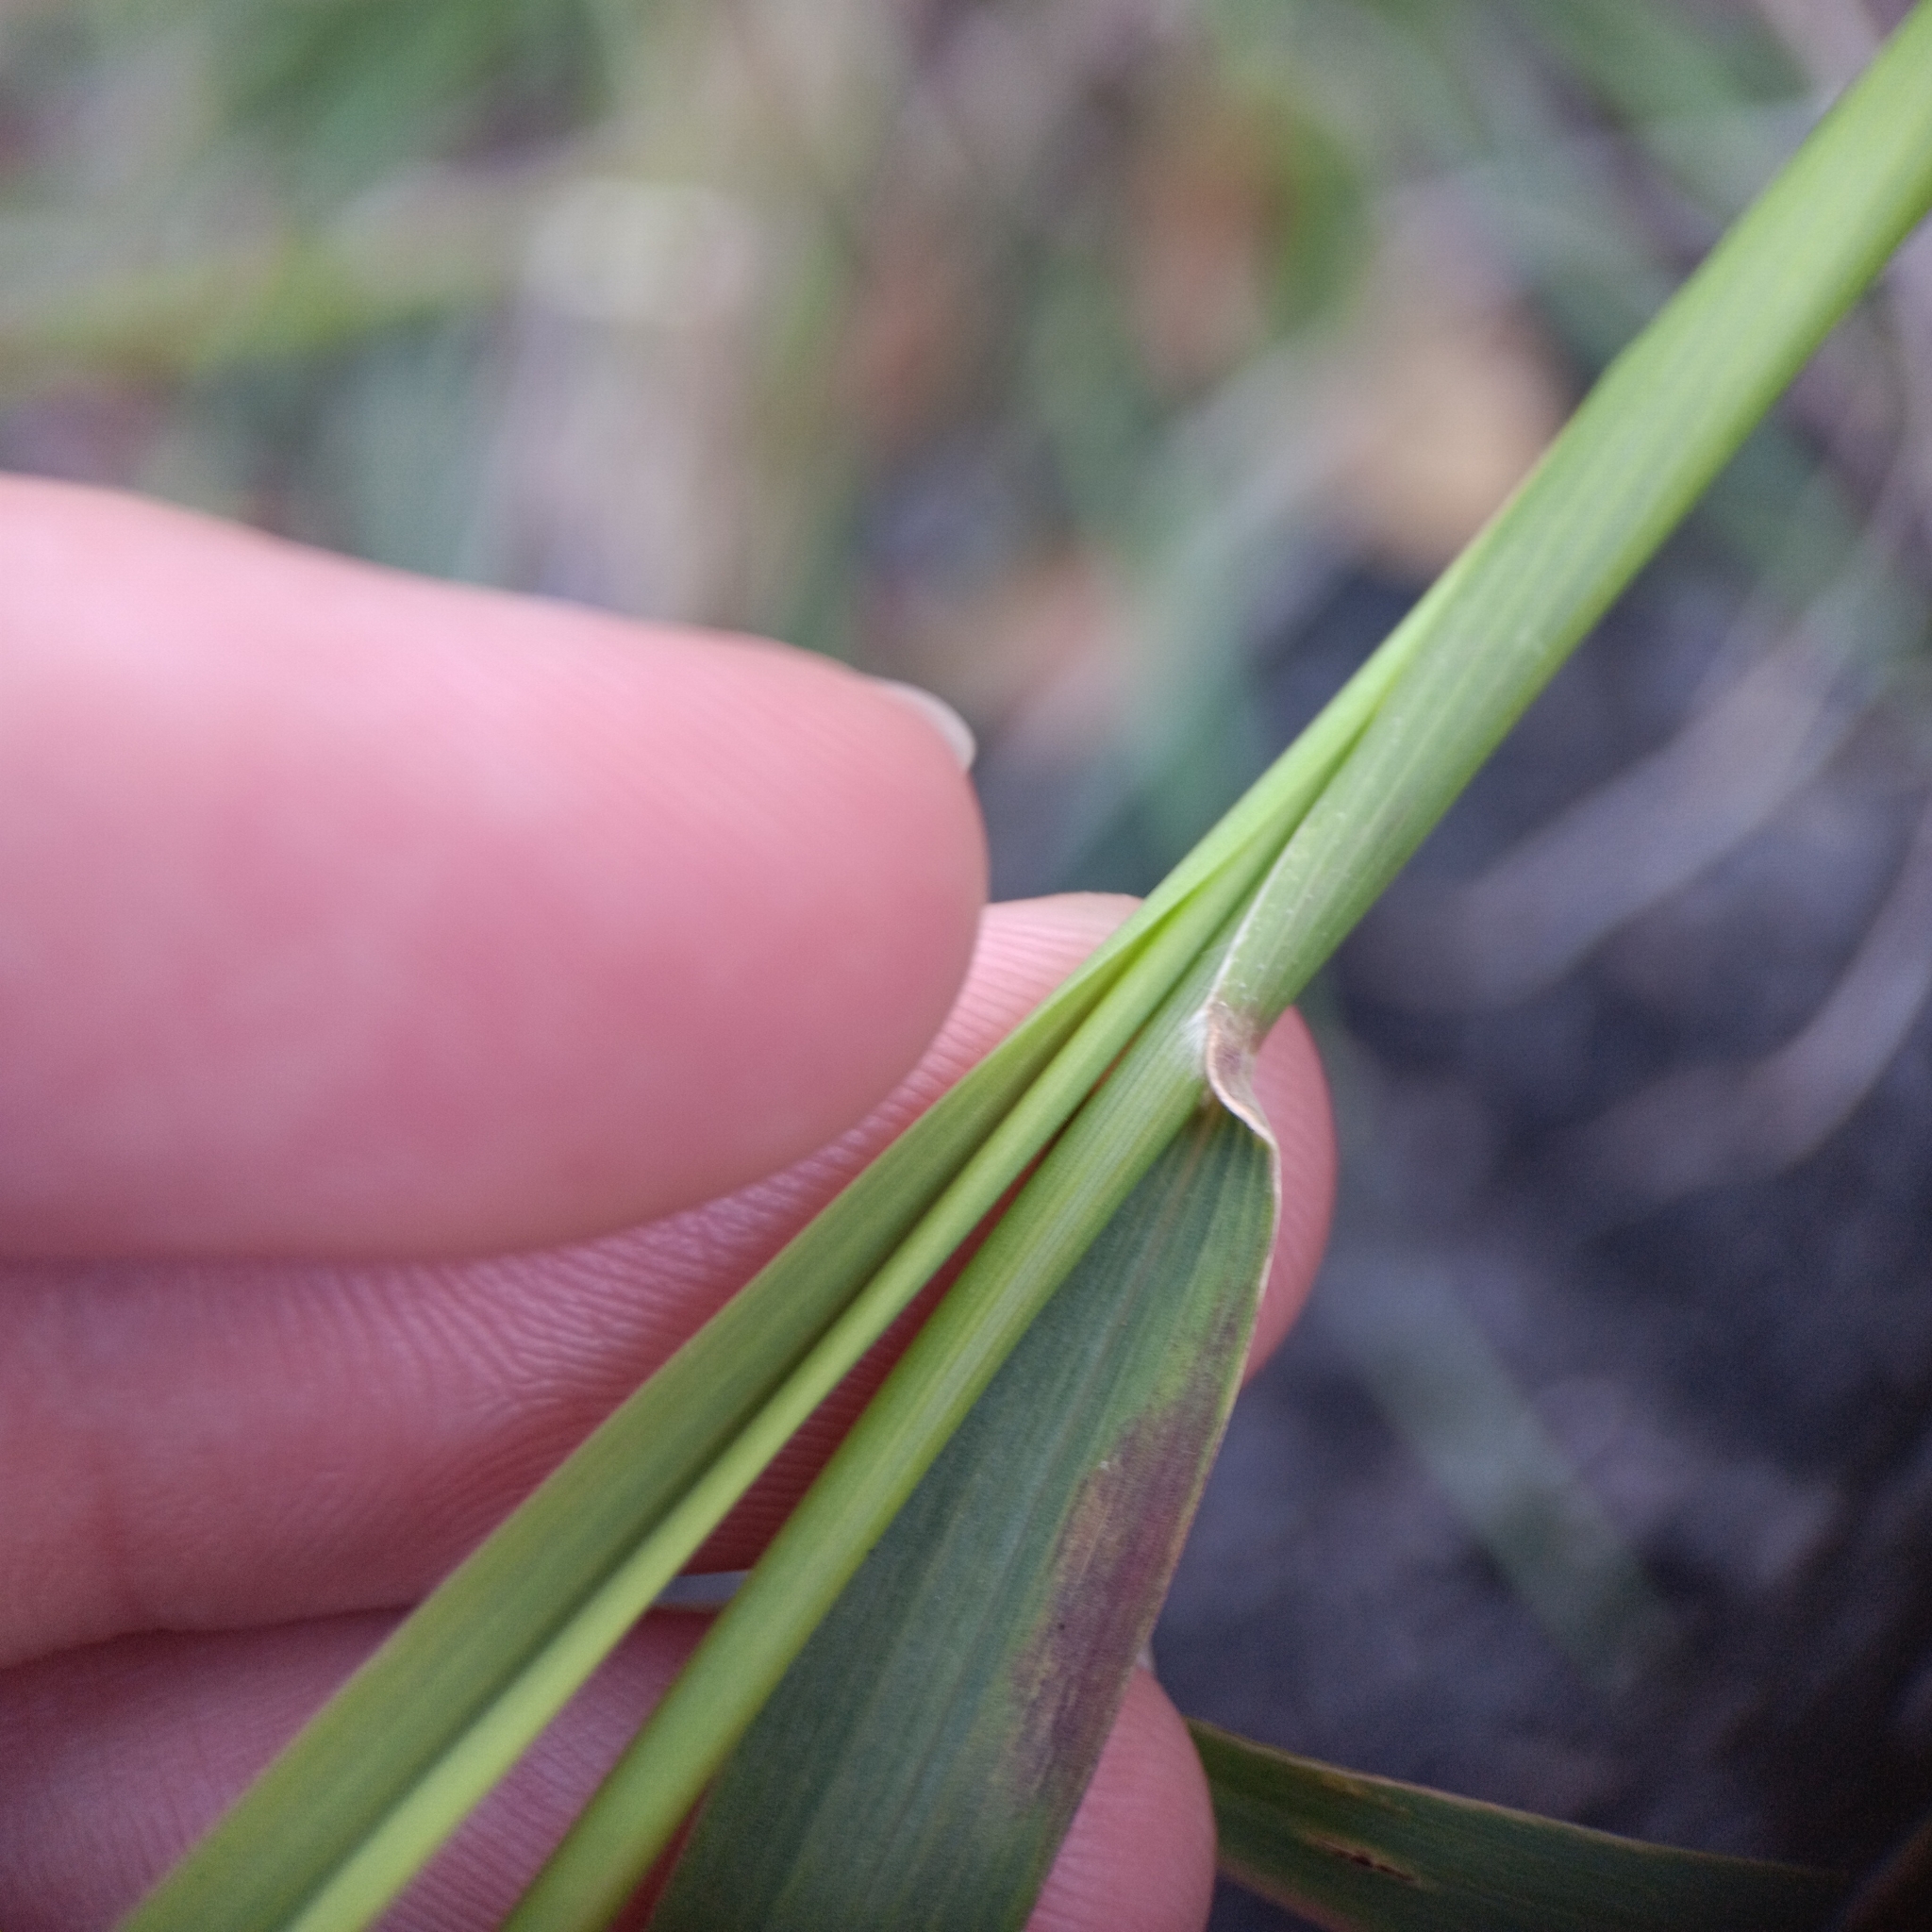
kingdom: Plantae
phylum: Tracheophyta
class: Liliopsida
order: Poales
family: Poaceae
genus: Melinis
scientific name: Melinis repens
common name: Rose natal grass
